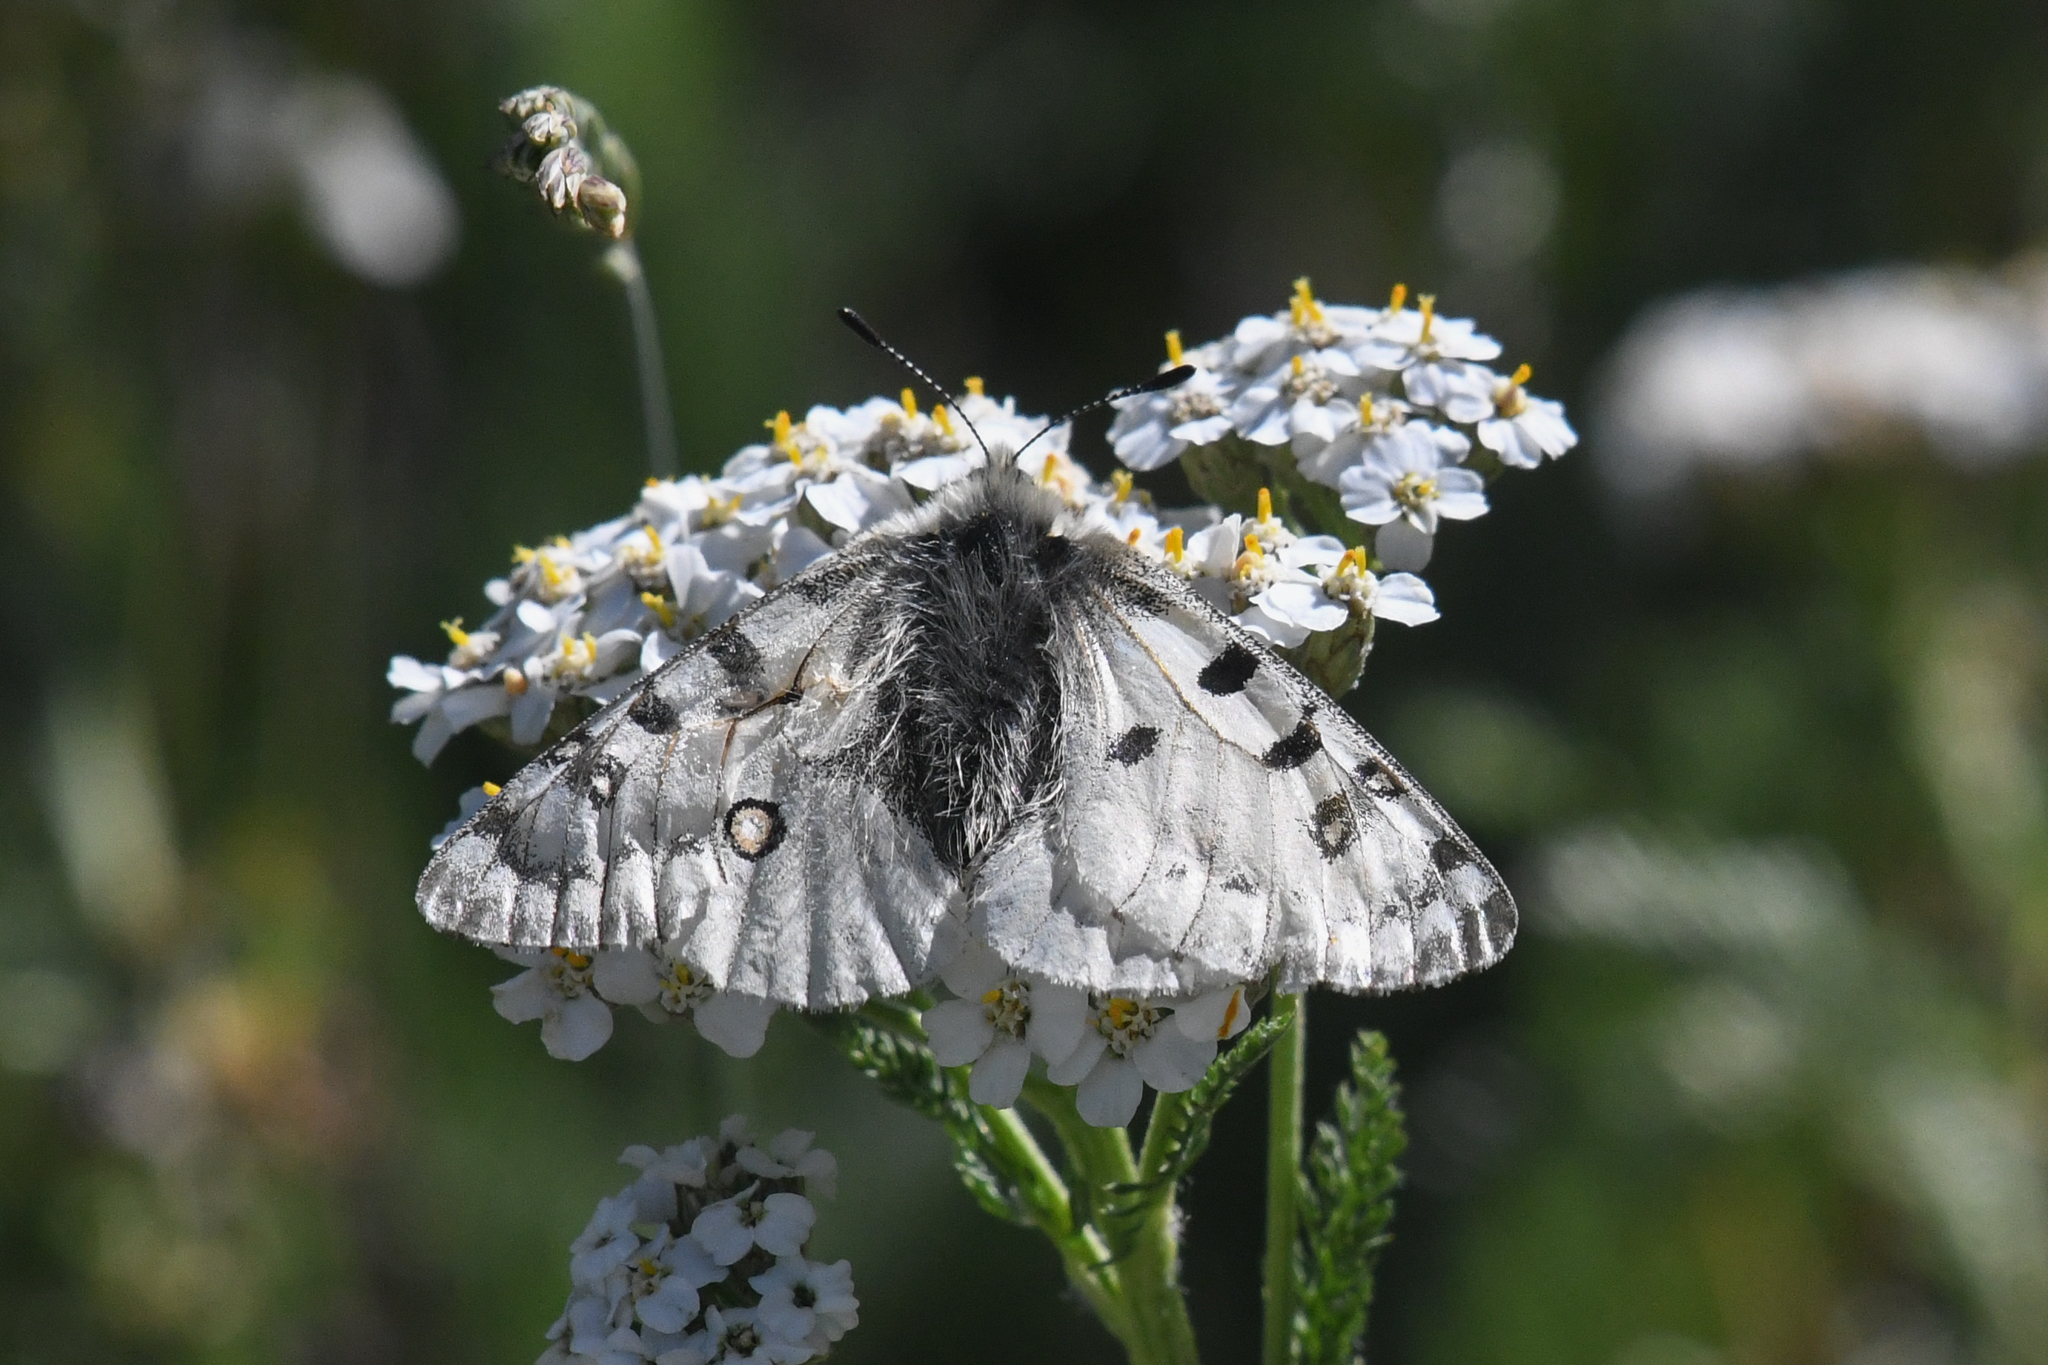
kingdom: Animalia
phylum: Arthropoda
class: Insecta
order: Lepidoptera
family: Papilionidae
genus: Parnassius
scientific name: Parnassius smintheus
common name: Mountain parnassian
